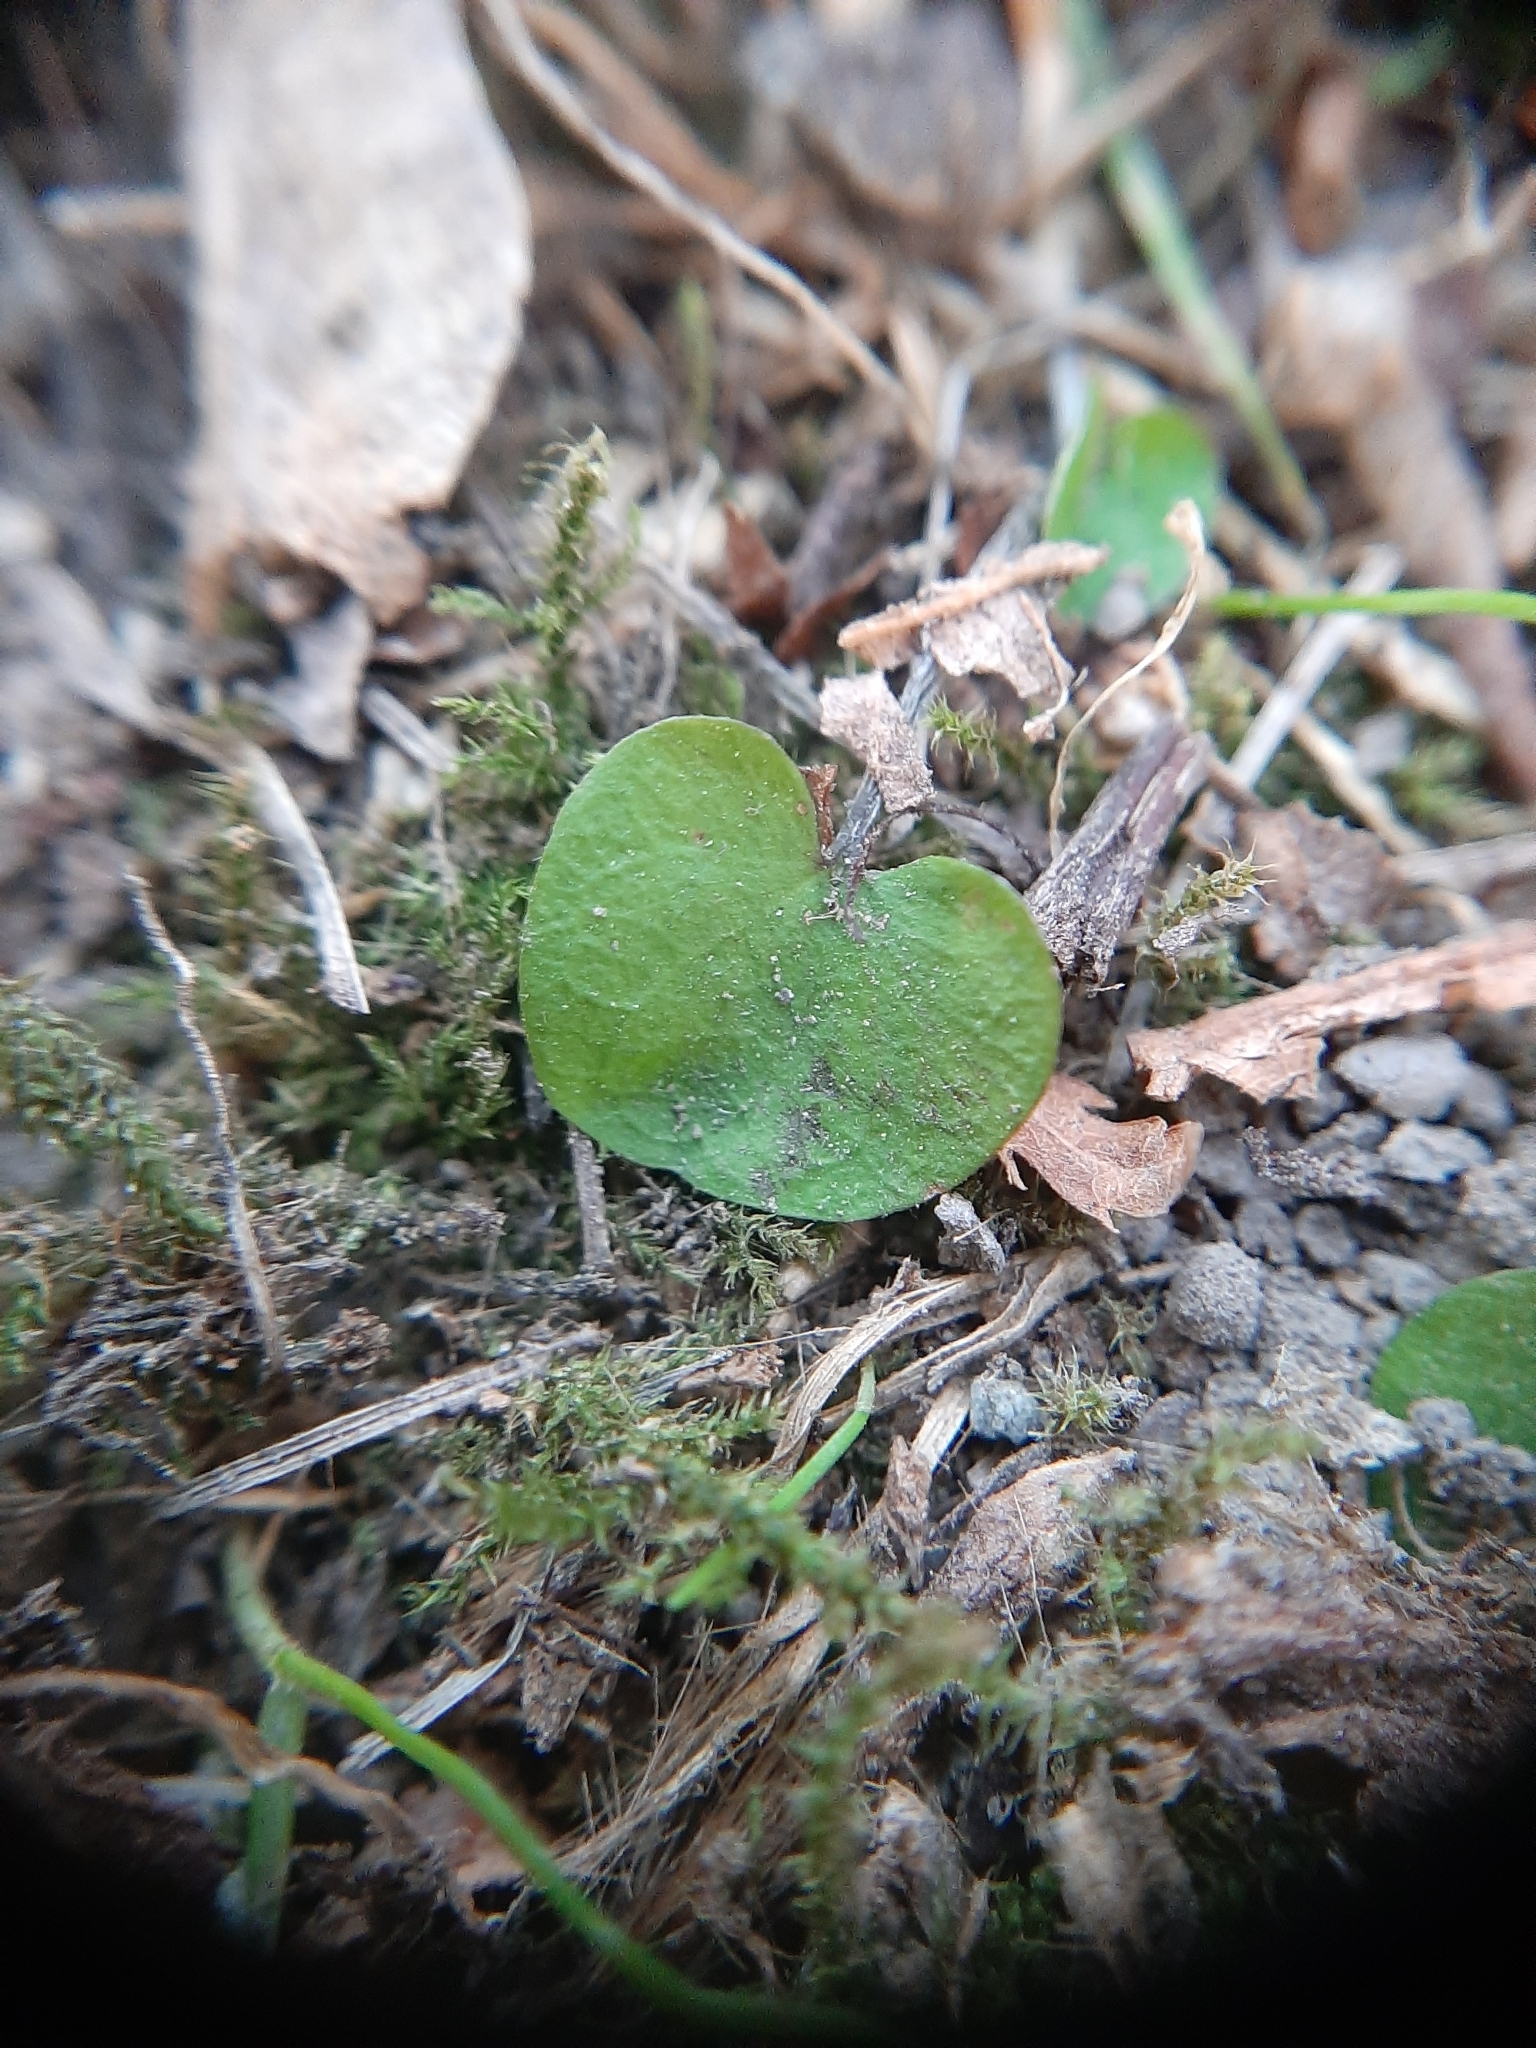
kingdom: Plantae
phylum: Tracheophyta
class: Magnoliopsida
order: Solanales
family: Convolvulaceae
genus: Dichondra
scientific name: Dichondra micrantha
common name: Kidneyweed
